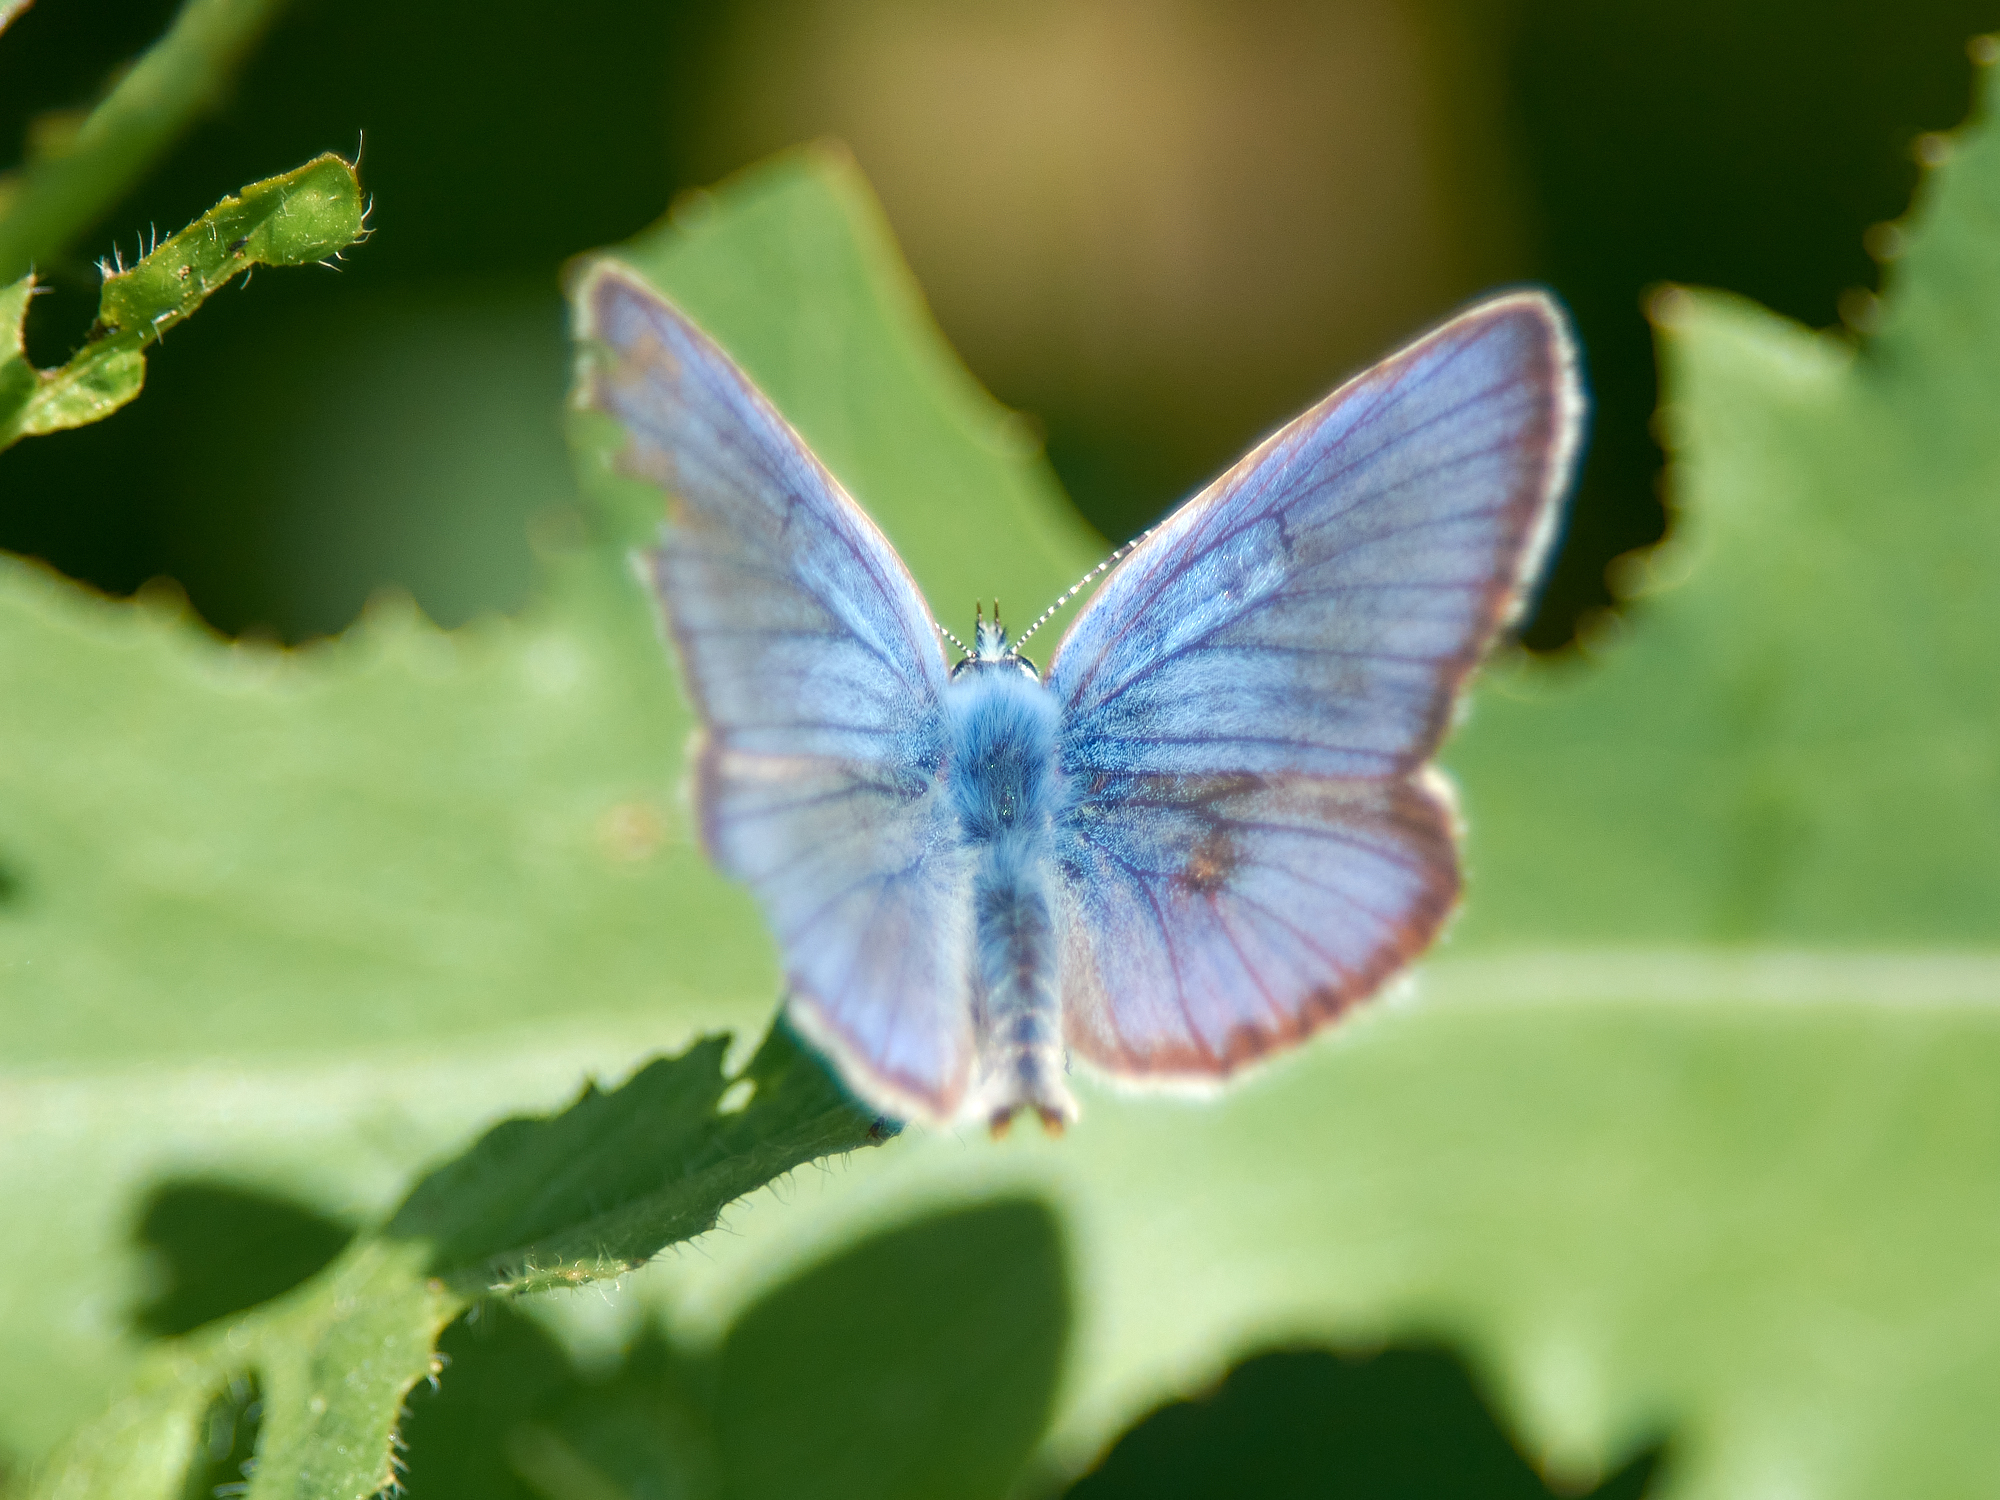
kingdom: Animalia
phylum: Arthropoda
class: Insecta
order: Lepidoptera
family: Lycaenidae
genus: Cyaniris
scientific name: Cyaniris semiargus
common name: Mazarine blue
